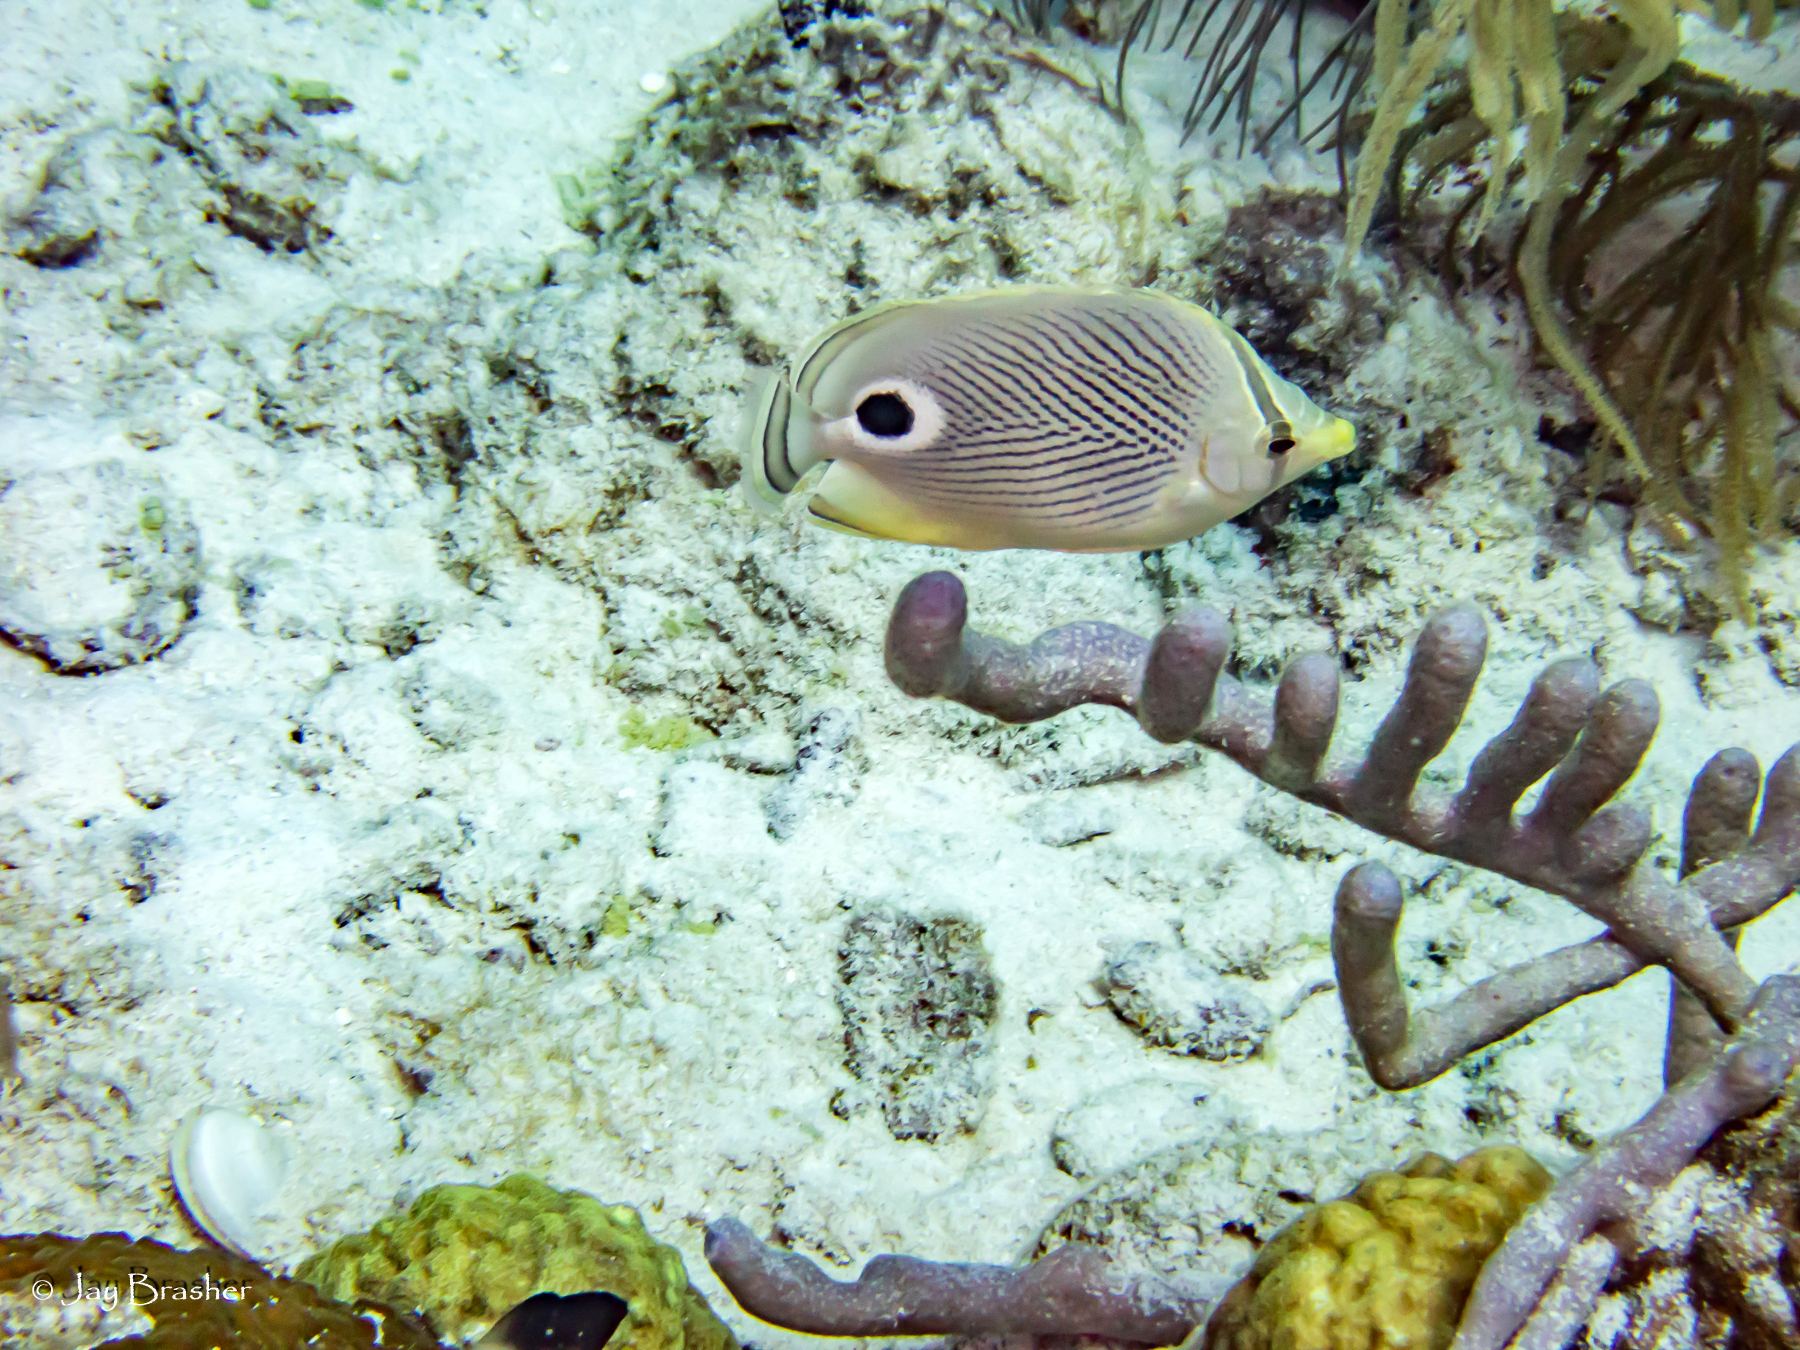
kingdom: Animalia
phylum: Chordata
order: Perciformes
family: Chaetodontidae
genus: Chaetodon
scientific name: Chaetodon capistratus
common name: Kete
